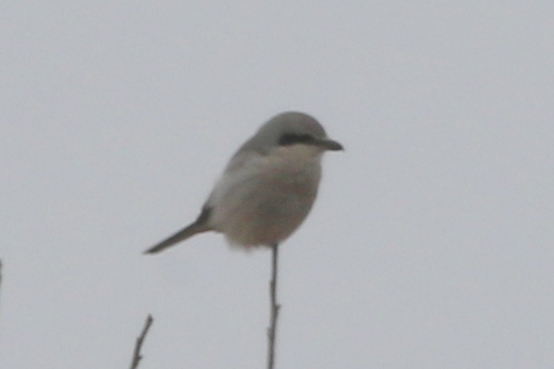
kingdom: Animalia
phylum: Chordata
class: Aves
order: Passeriformes
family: Laniidae
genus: Lanius
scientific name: Lanius borealis
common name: Northern shrike
